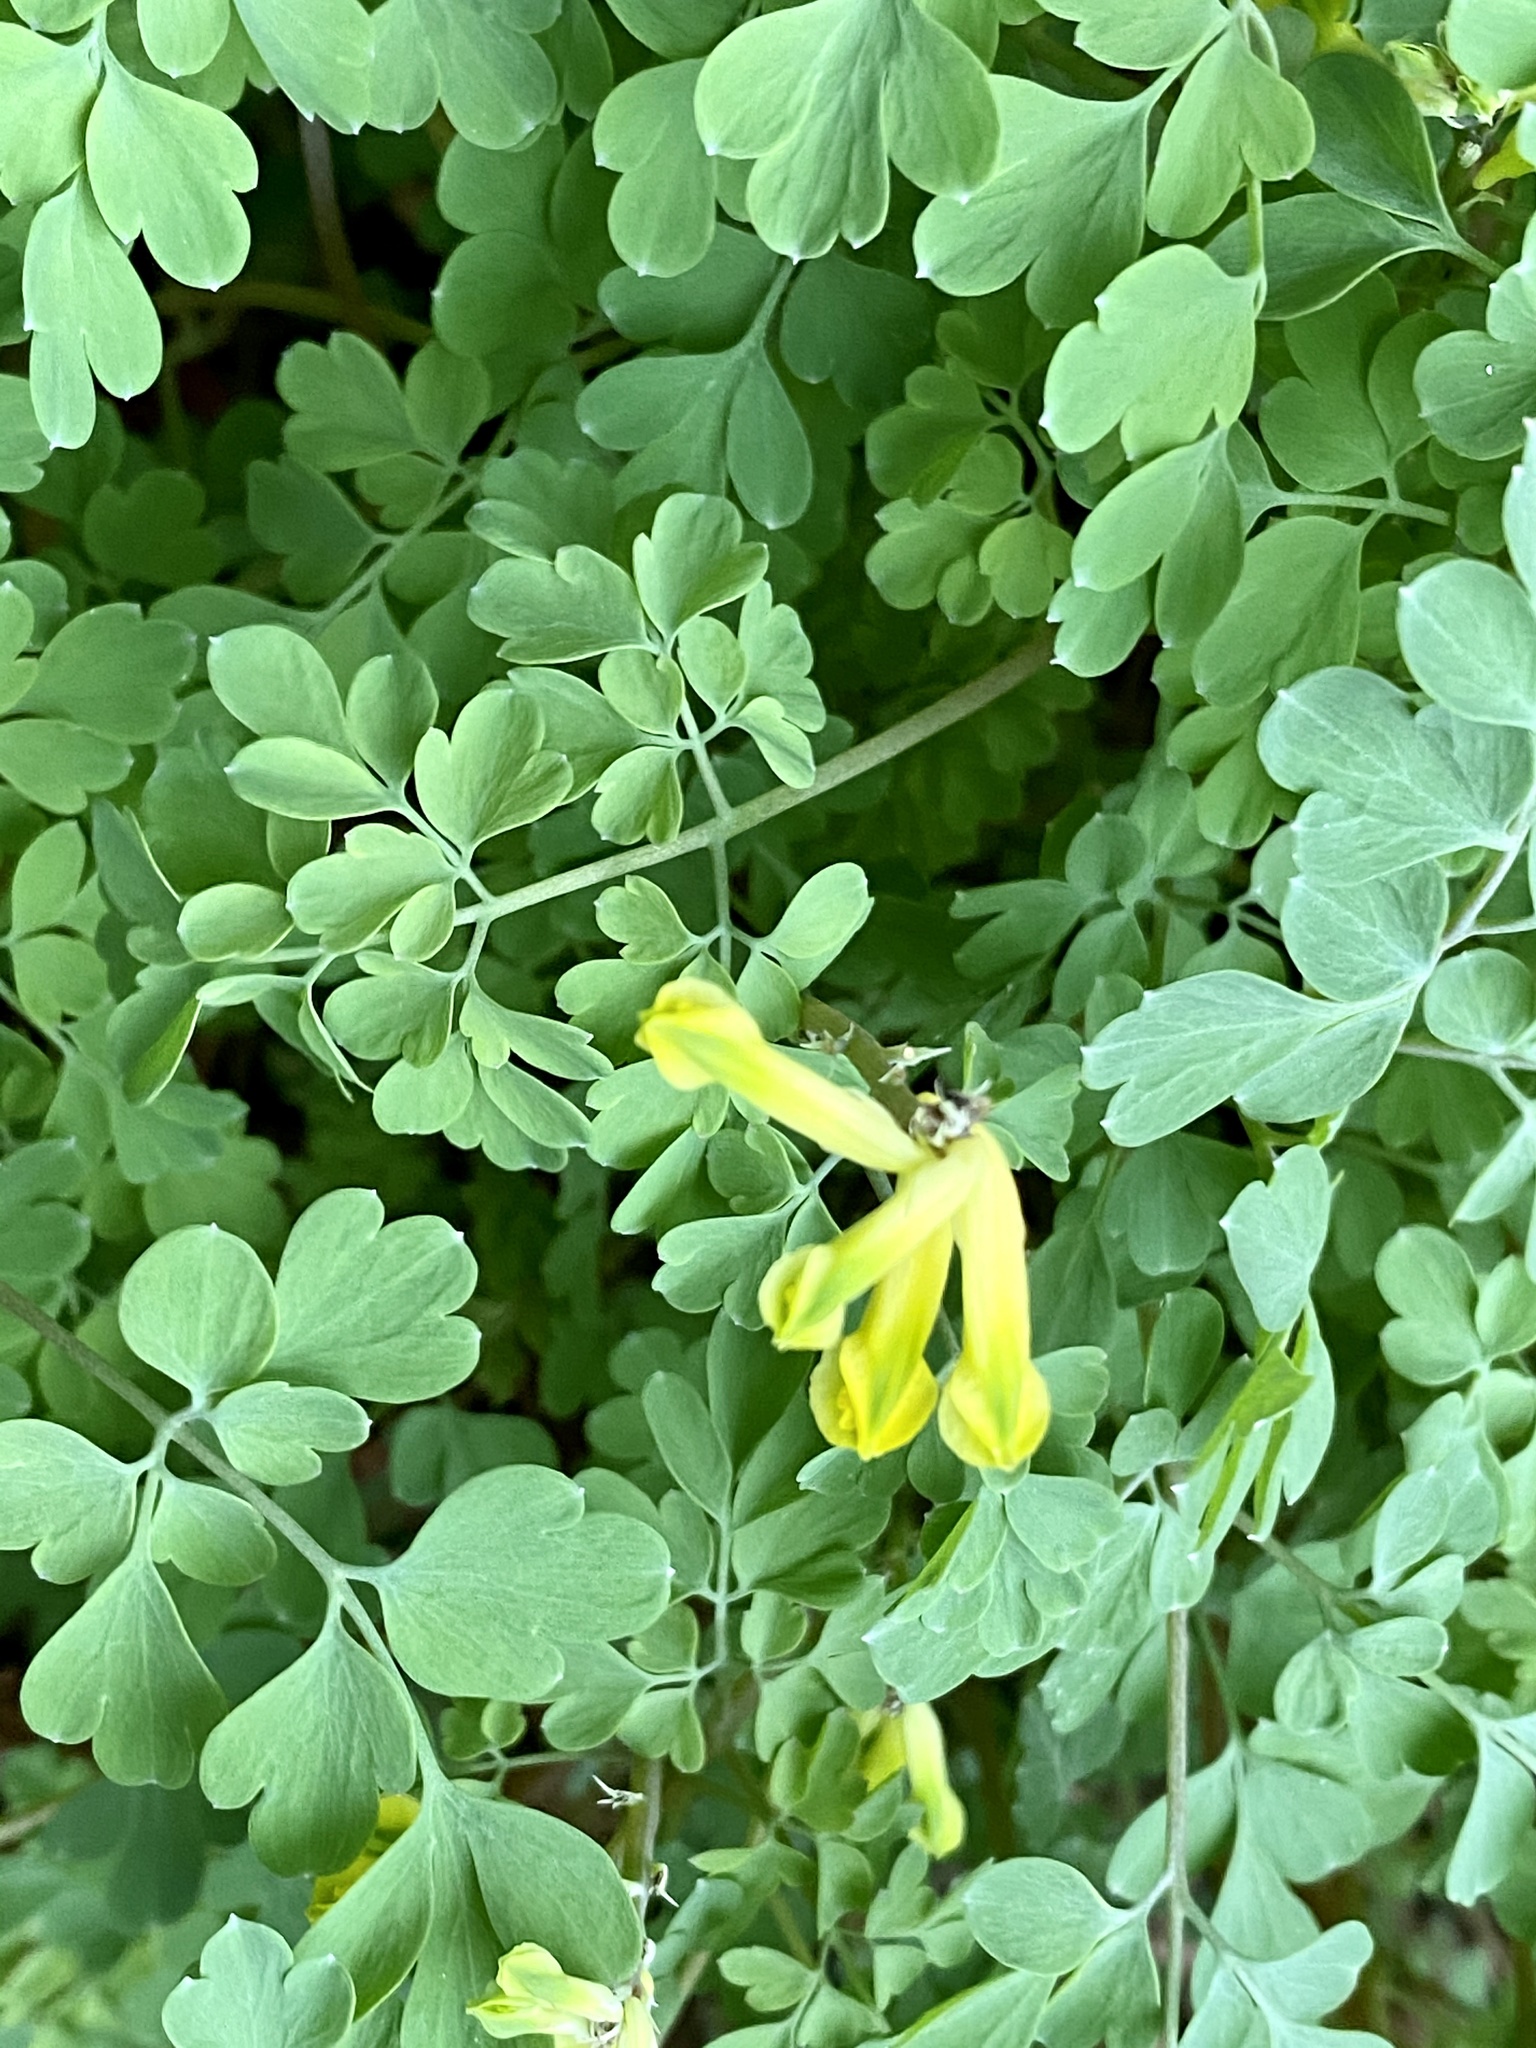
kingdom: Plantae
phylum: Tracheophyta
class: Magnoliopsida
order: Ranunculales
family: Papaveraceae
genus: Pseudofumaria
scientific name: Pseudofumaria lutea
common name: Yellow corydalis
